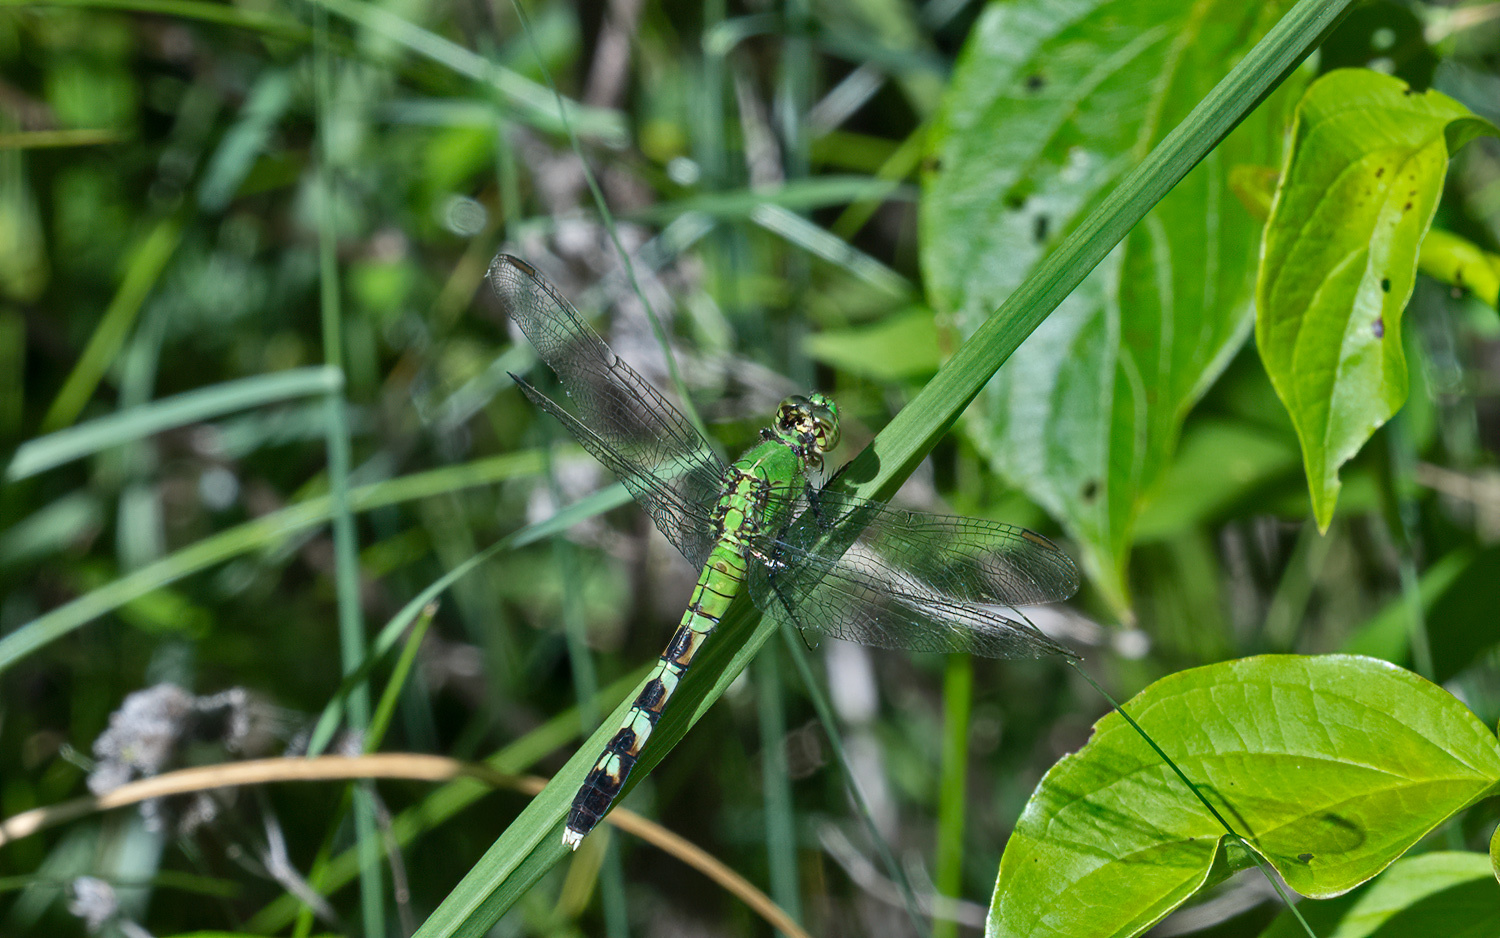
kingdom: Animalia
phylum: Arthropoda
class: Insecta
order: Odonata
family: Libellulidae
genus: Erythemis
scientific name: Erythemis simplicicollis
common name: Eastern pondhawk
